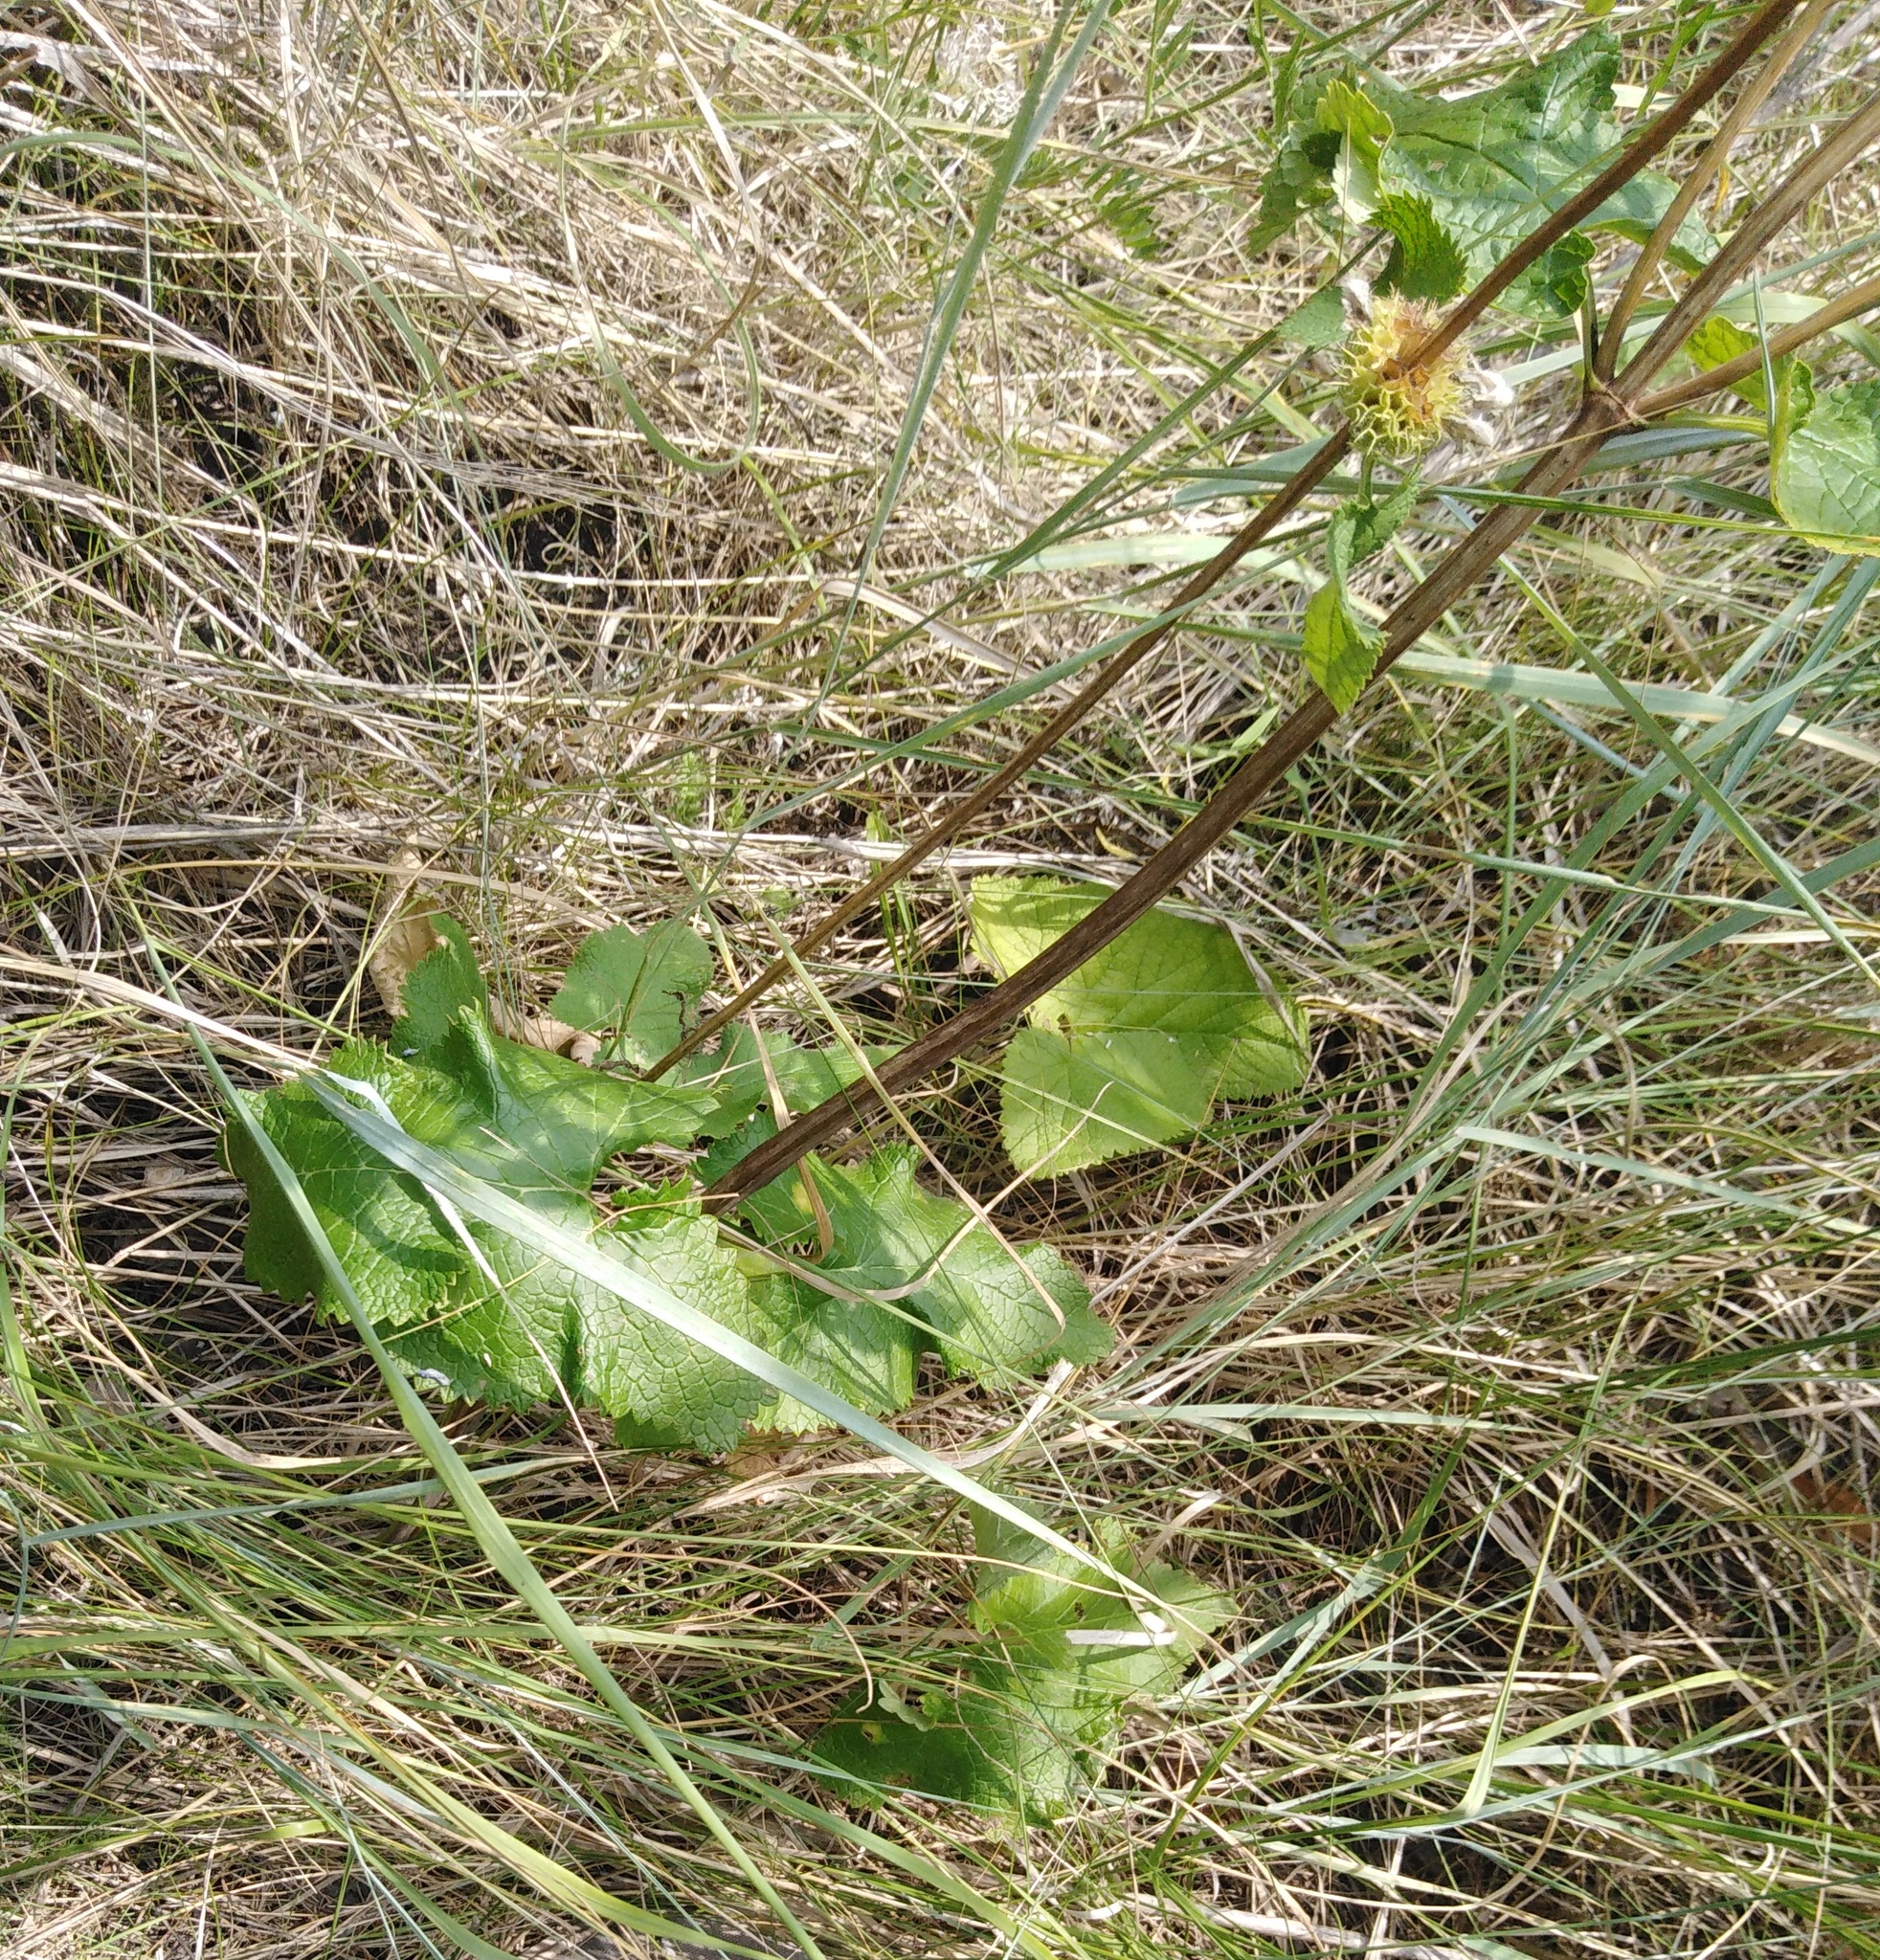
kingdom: Plantae
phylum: Tracheophyta
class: Magnoliopsida
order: Lamiales
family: Lamiaceae
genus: Phlomoides
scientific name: Phlomoides tuberosa
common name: Tuberous jerusalem sage
